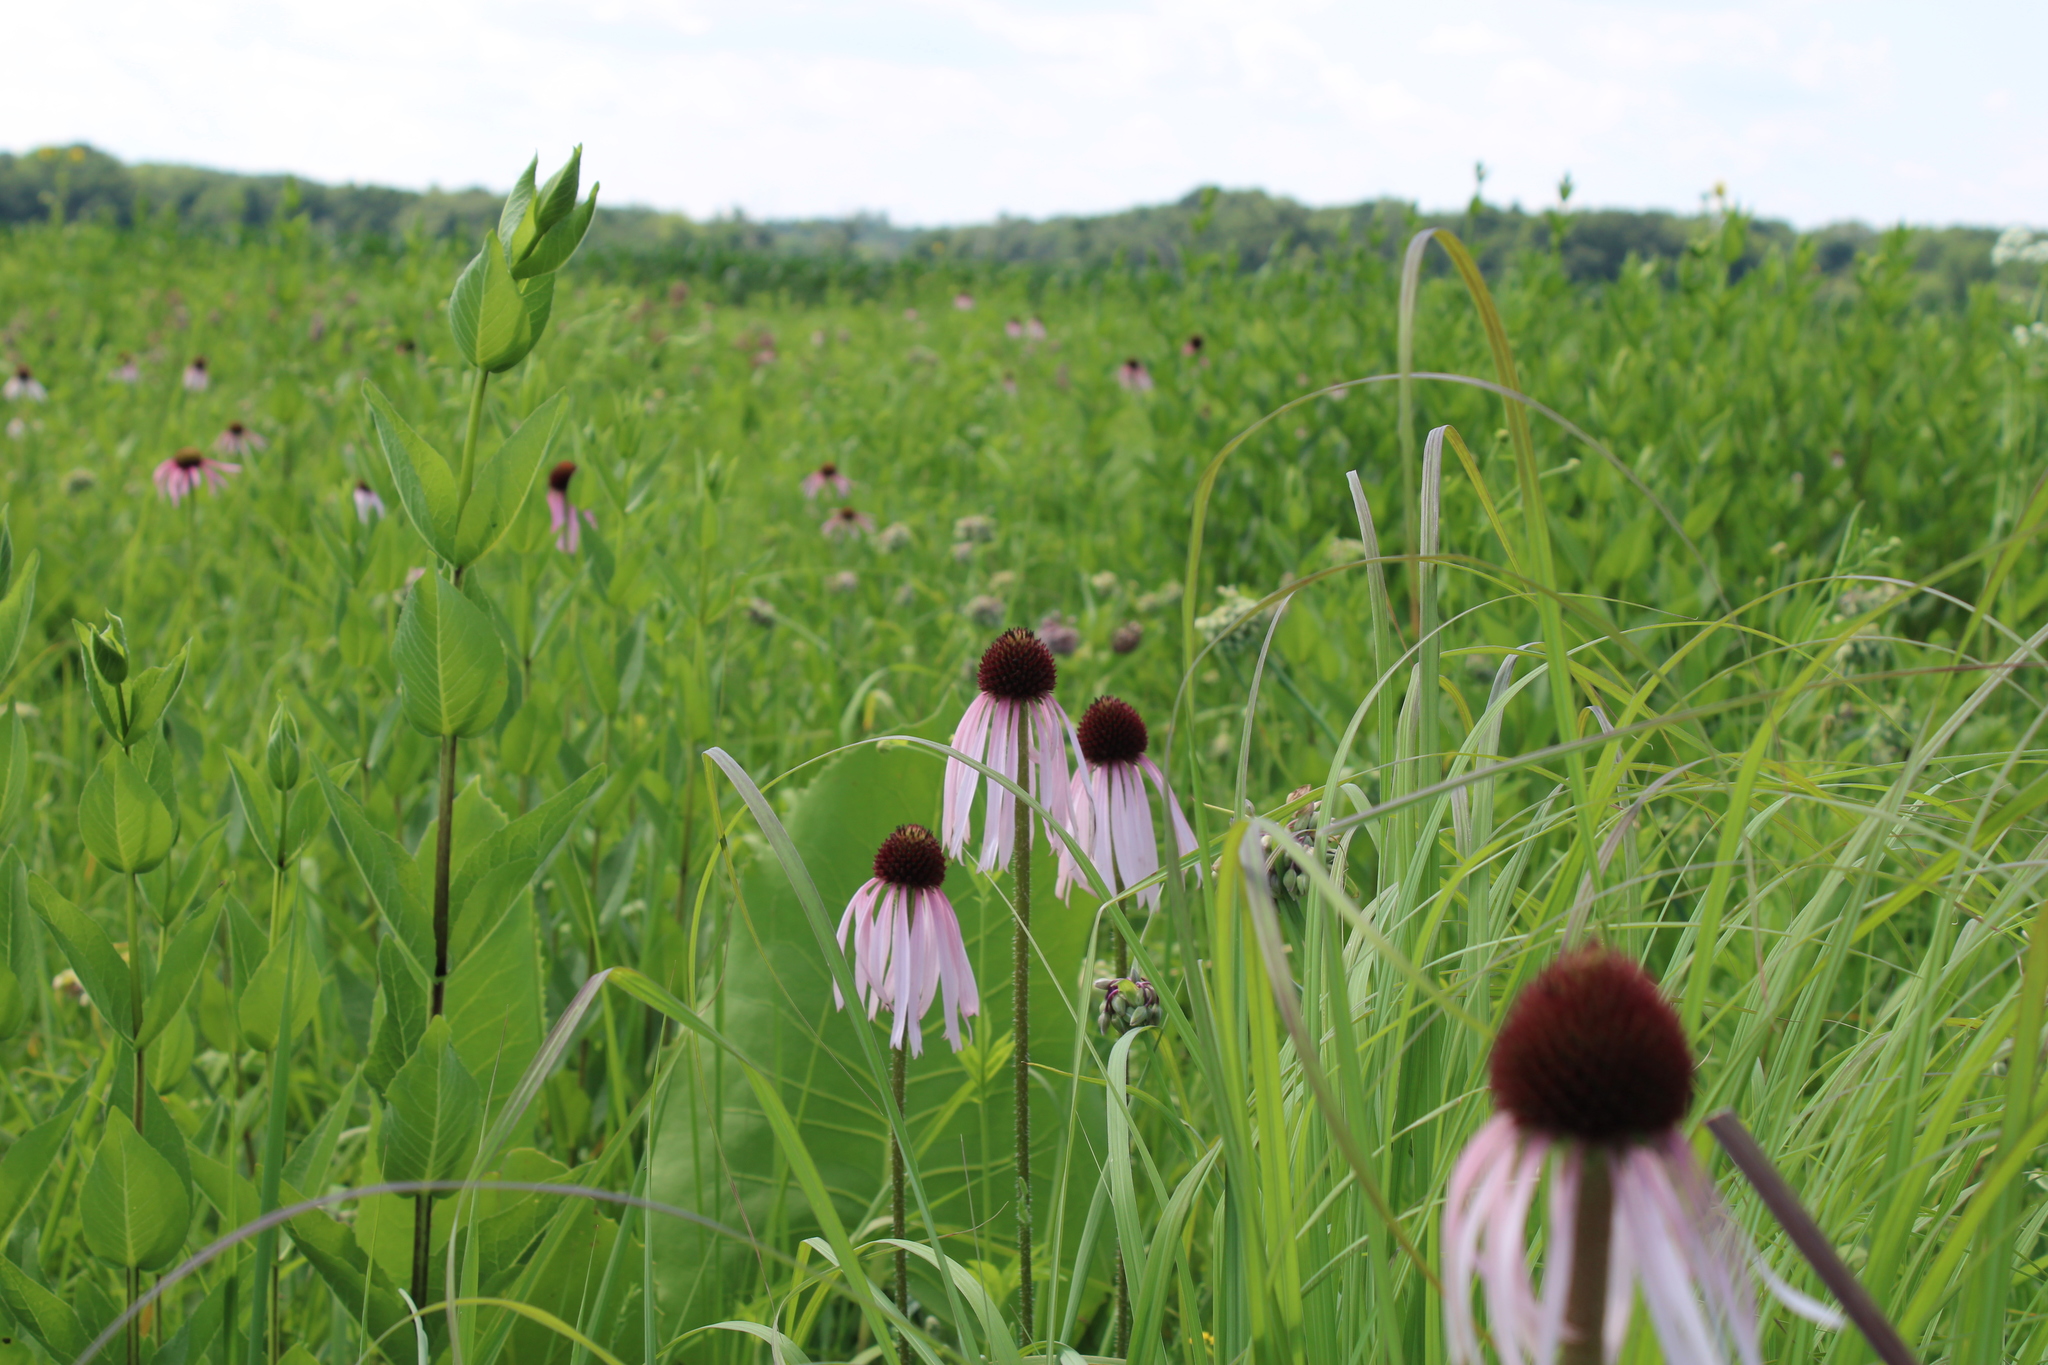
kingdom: Plantae
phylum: Tracheophyta
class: Magnoliopsida
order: Asterales
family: Asteraceae
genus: Echinacea
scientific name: Echinacea pallida
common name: Pale echinacea
